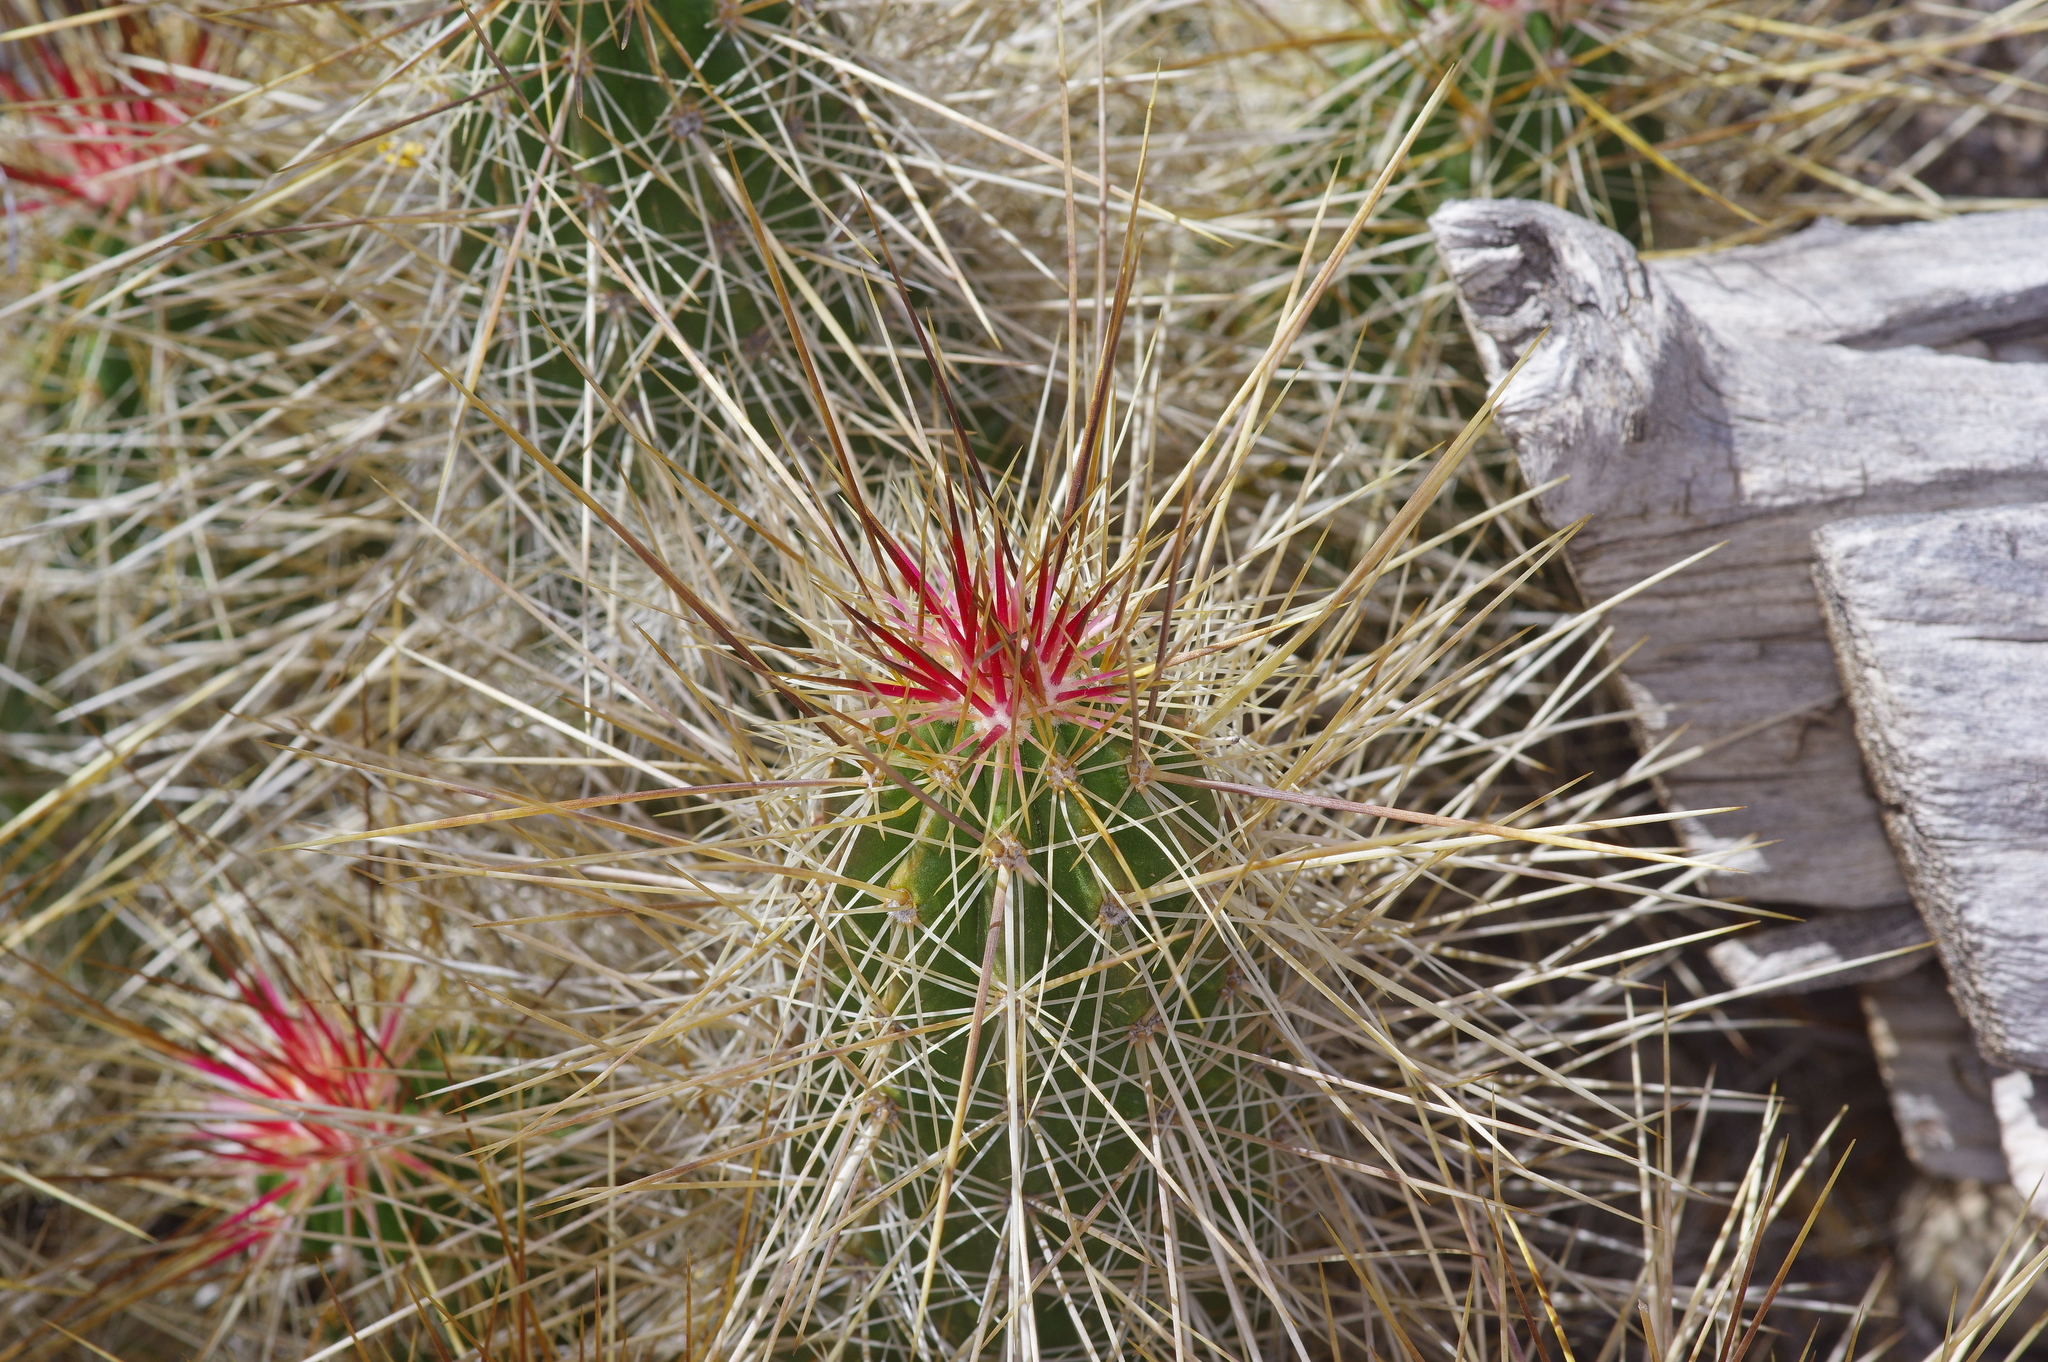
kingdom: Plantae
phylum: Tracheophyta
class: Magnoliopsida
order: Caryophyllales
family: Cactaceae
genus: Echinocereus
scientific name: Echinocereus stramineus
